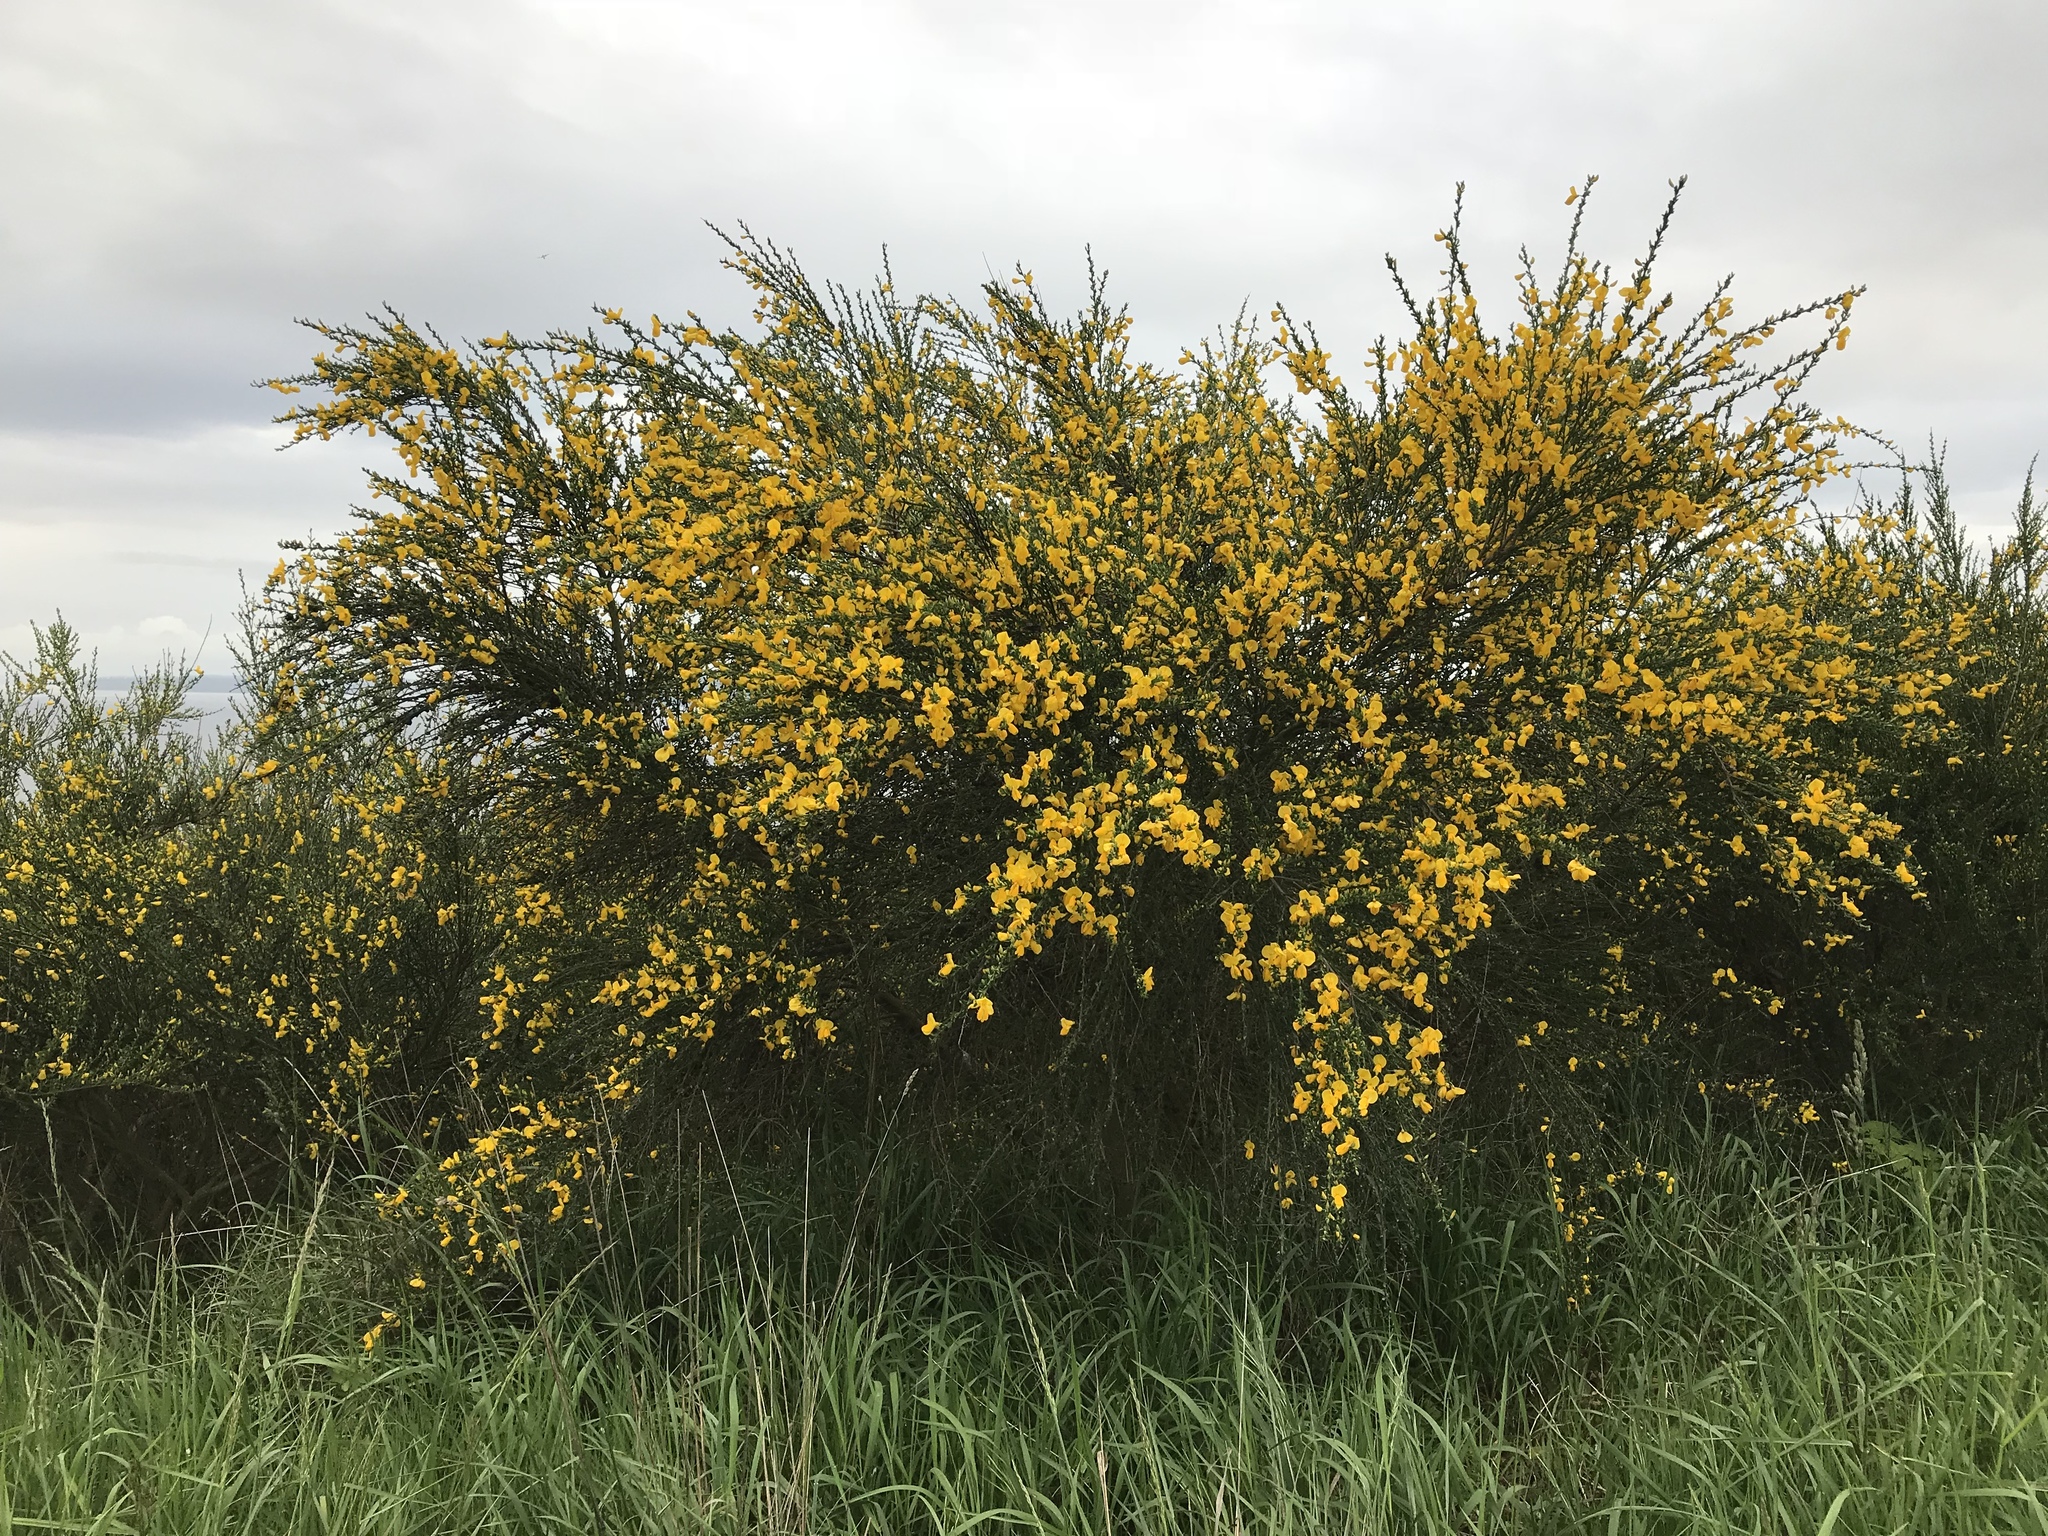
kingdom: Plantae
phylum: Tracheophyta
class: Magnoliopsida
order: Fabales
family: Fabaceae
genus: Cytisus
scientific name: Cytisus scoparius
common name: Scotch broom
